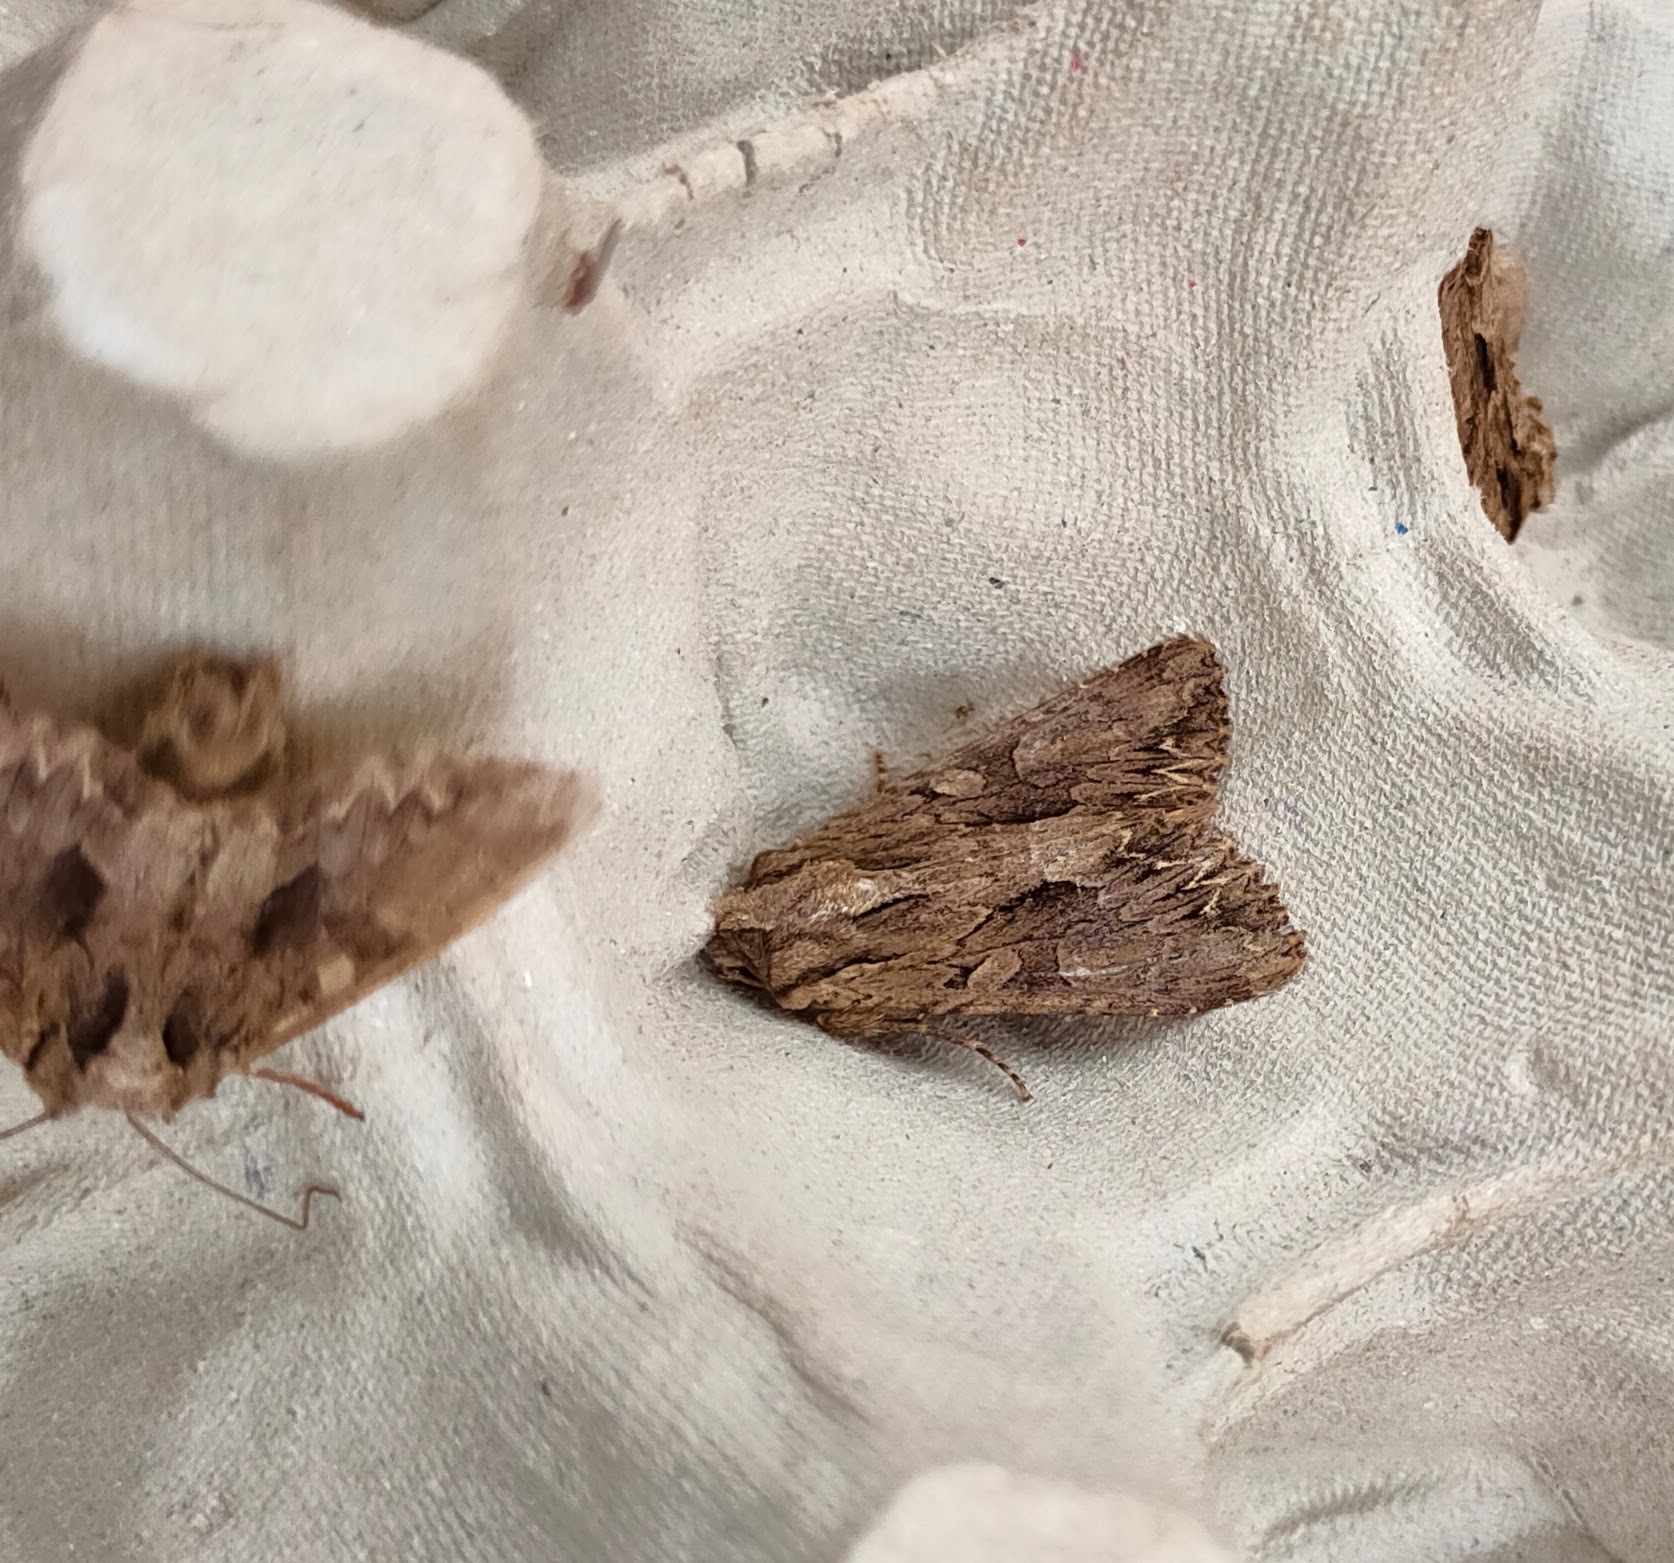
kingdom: Animalia
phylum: Arthropoda
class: Insecta
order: Lepidoptera
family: Noctuidae
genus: Apamea
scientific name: Apamea monoglypha
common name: Dark arches
